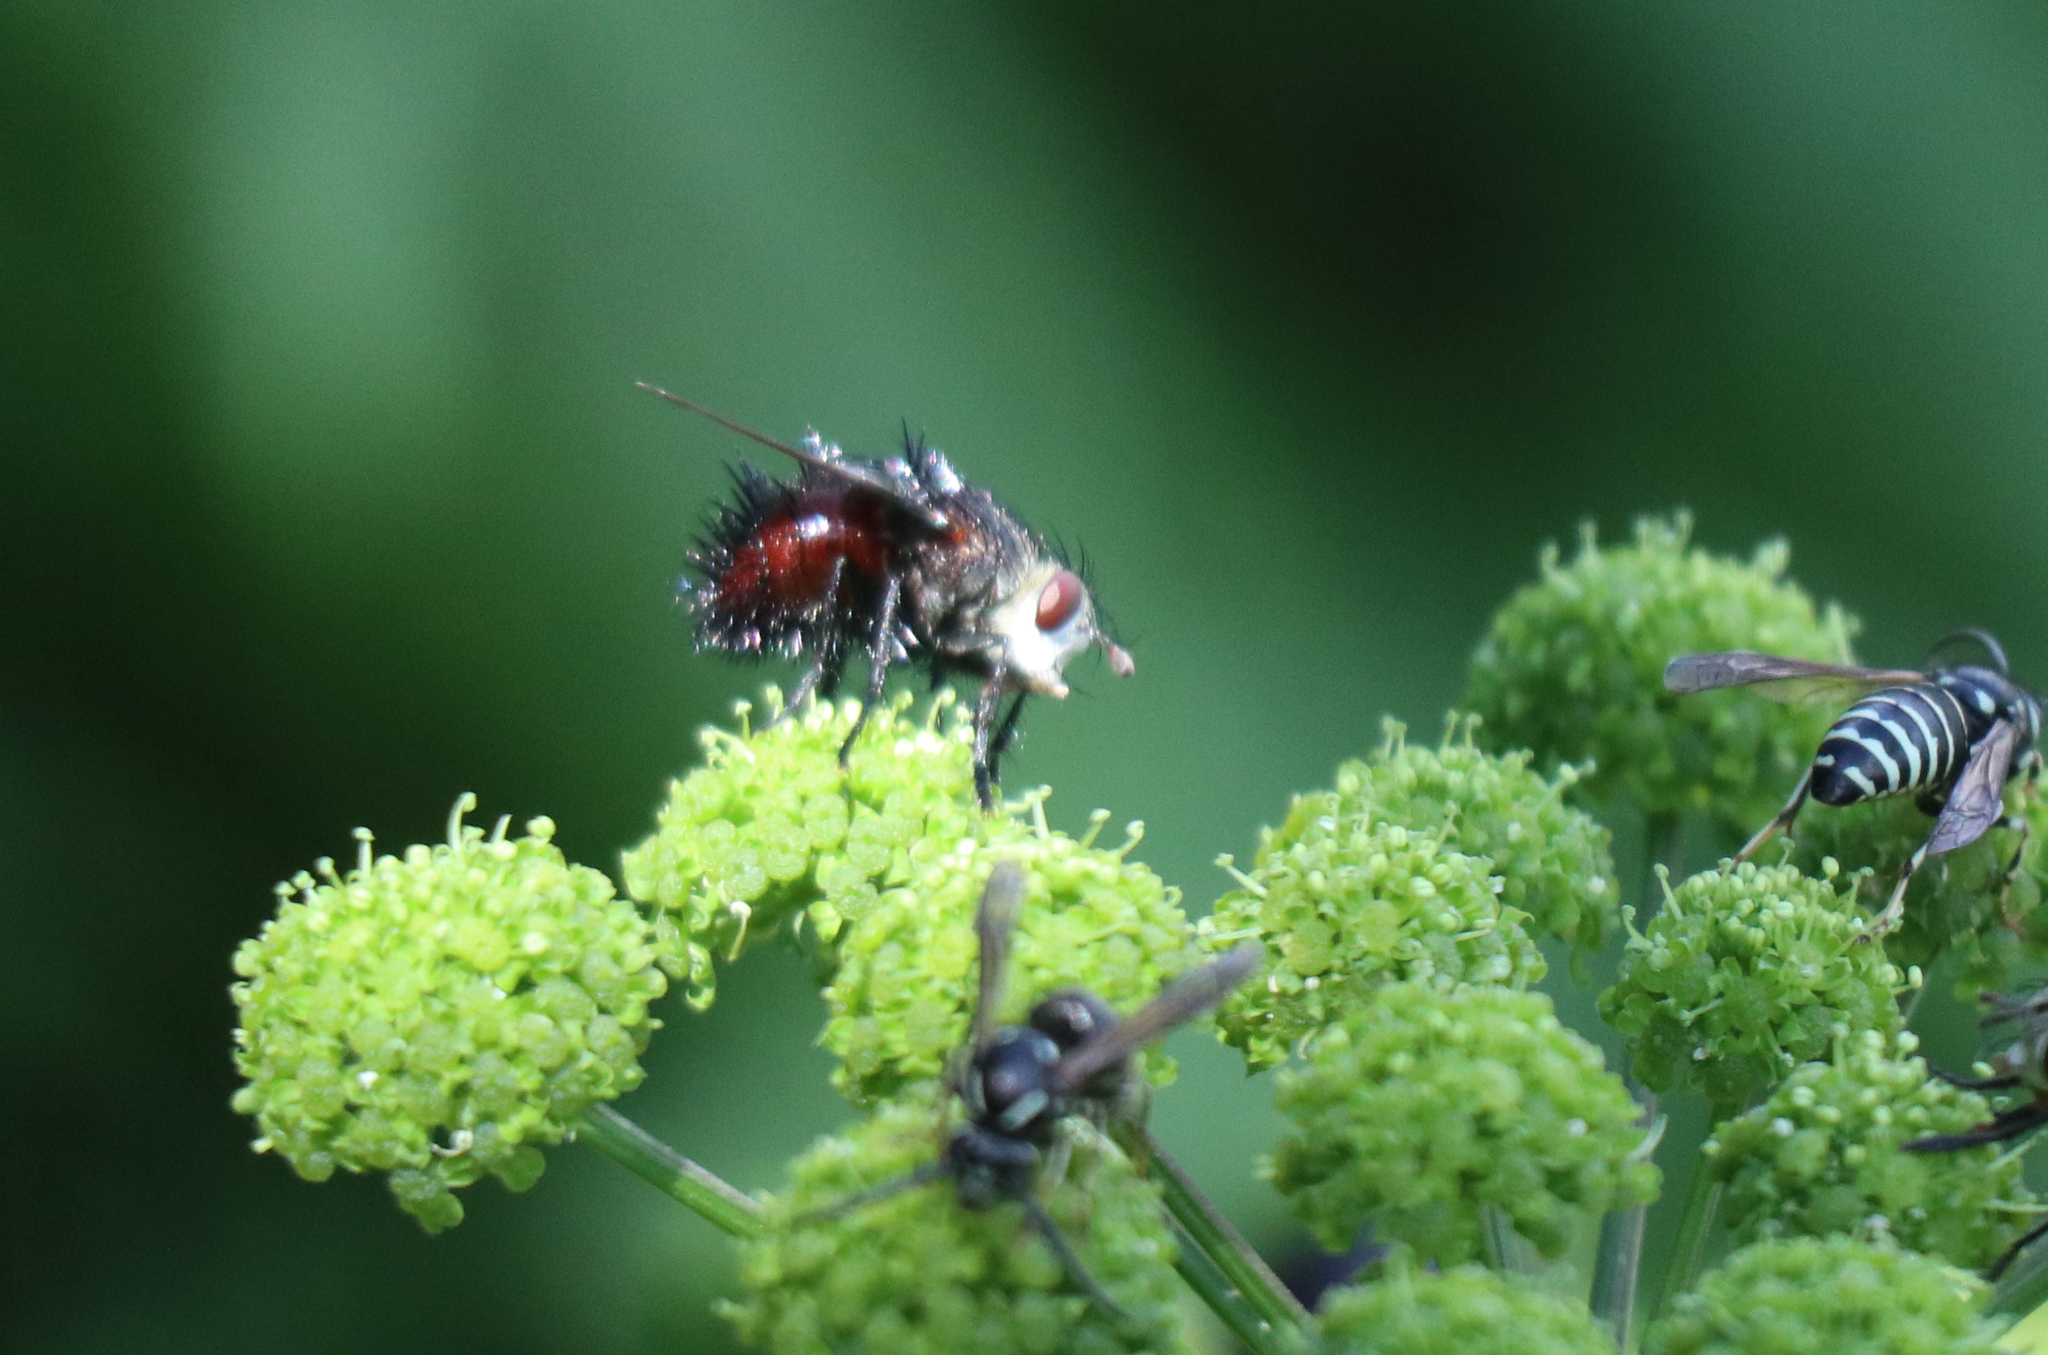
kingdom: Animalia
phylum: Arthropoda
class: Insecta
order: Diptera
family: Tachinidae
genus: Juriniopsis
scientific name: Juriniopsis adusta
